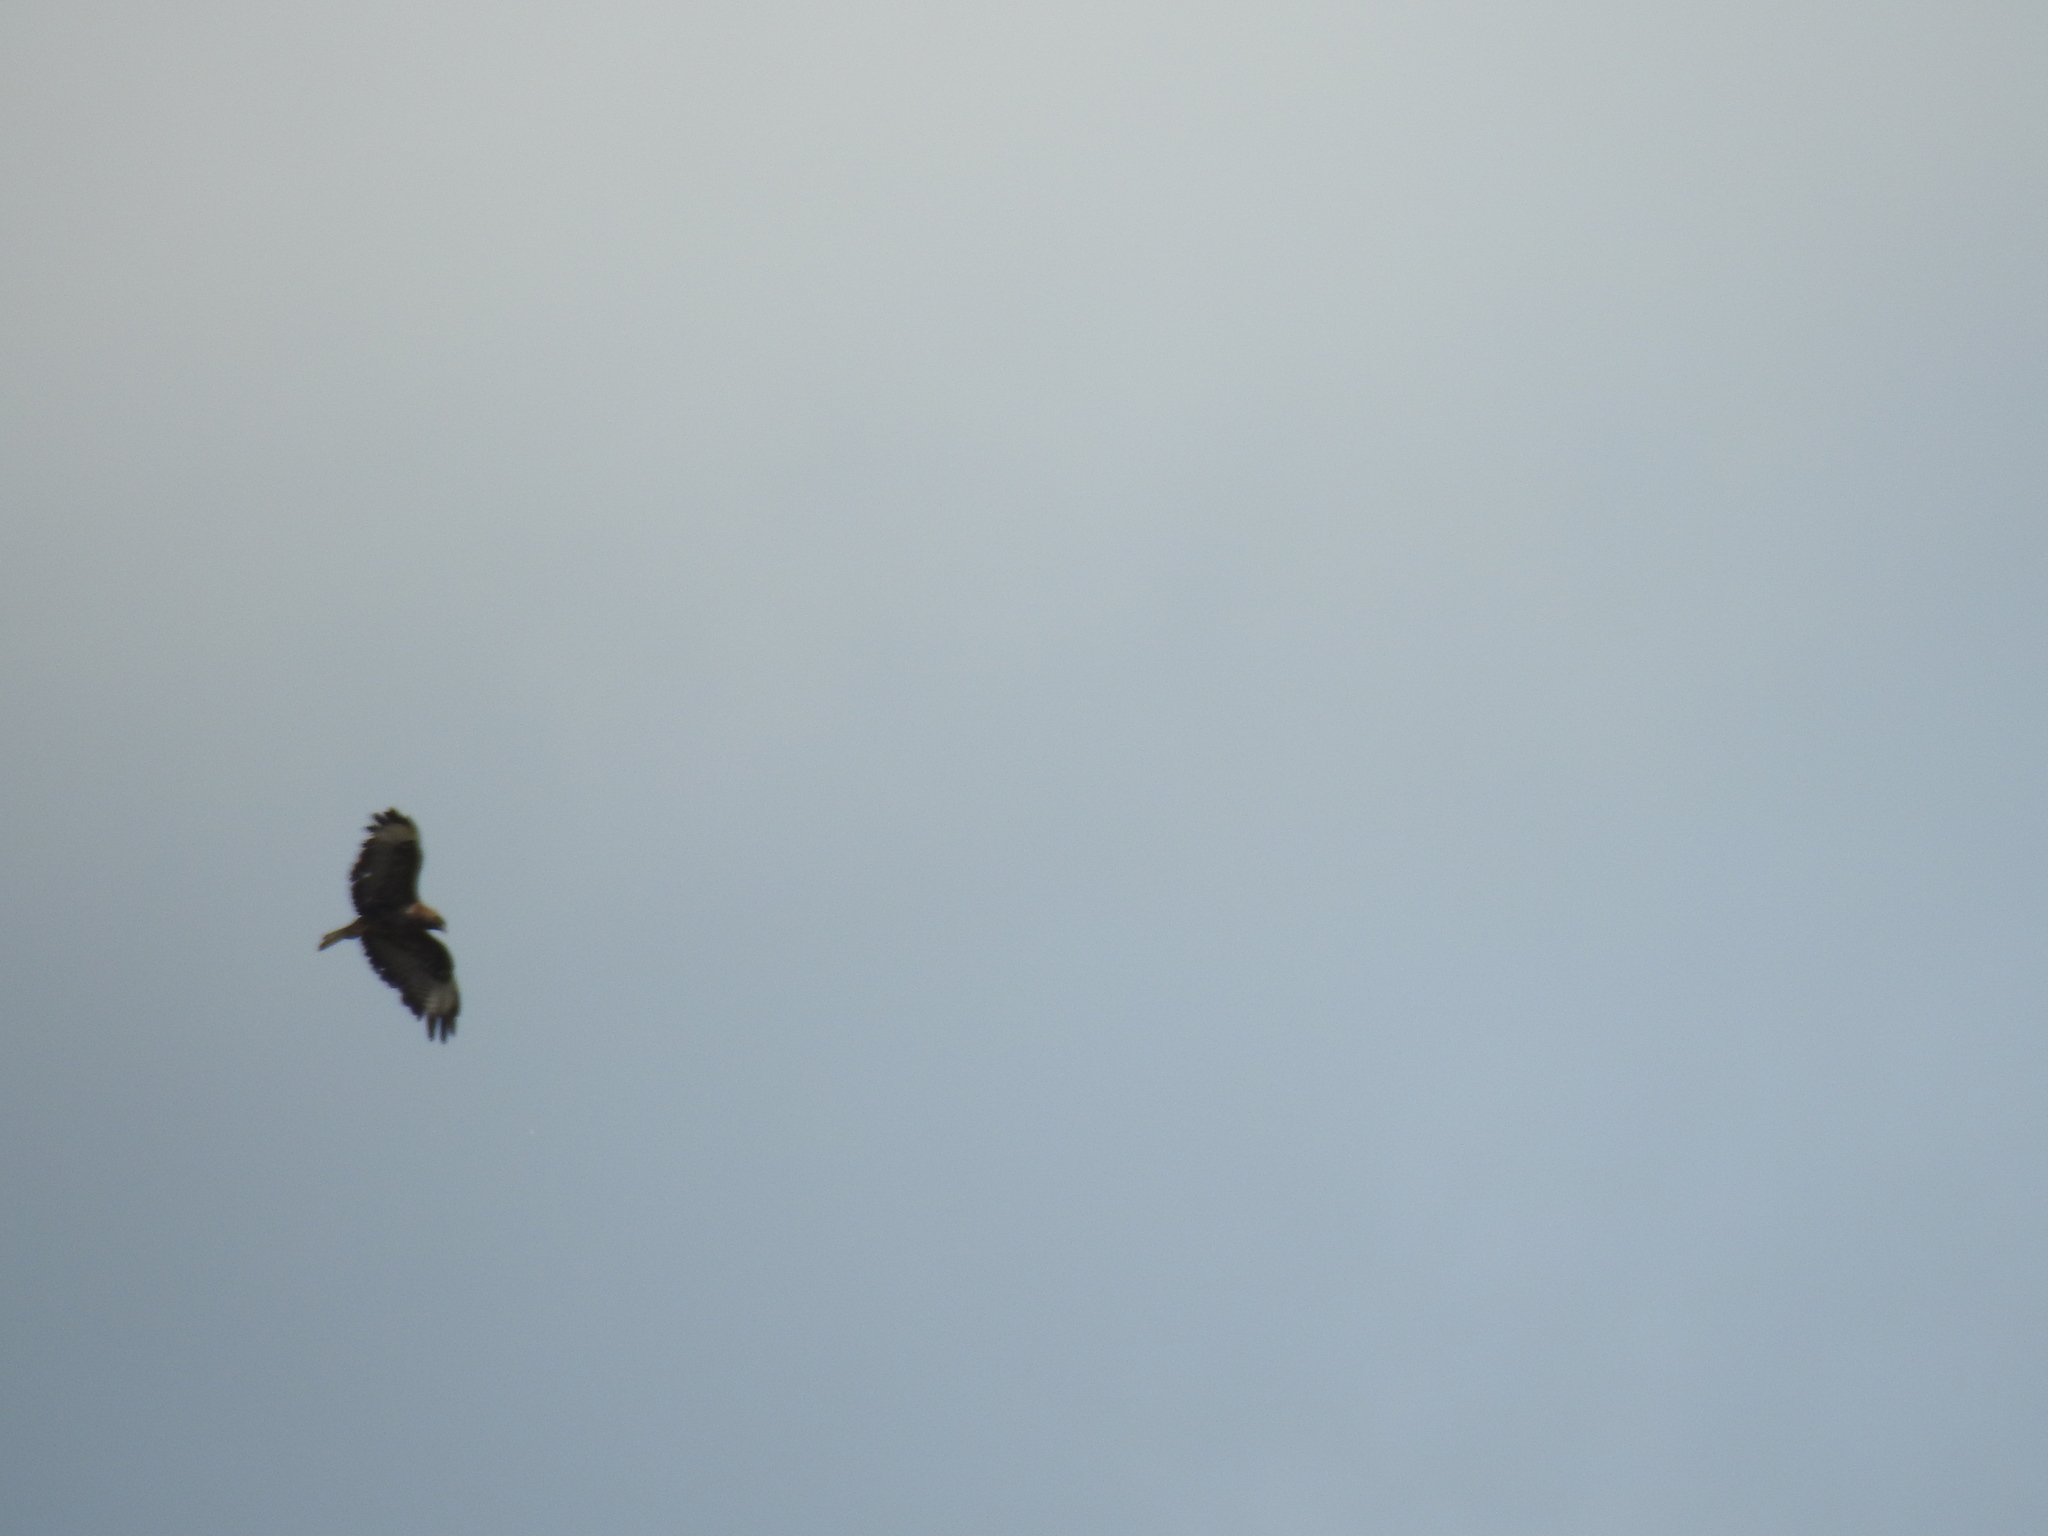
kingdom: Animalia
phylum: Chordata
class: Aves
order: Accipitriformes
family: Accipitridae
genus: Buteo
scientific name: Buteo buteo
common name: Common buzzard
